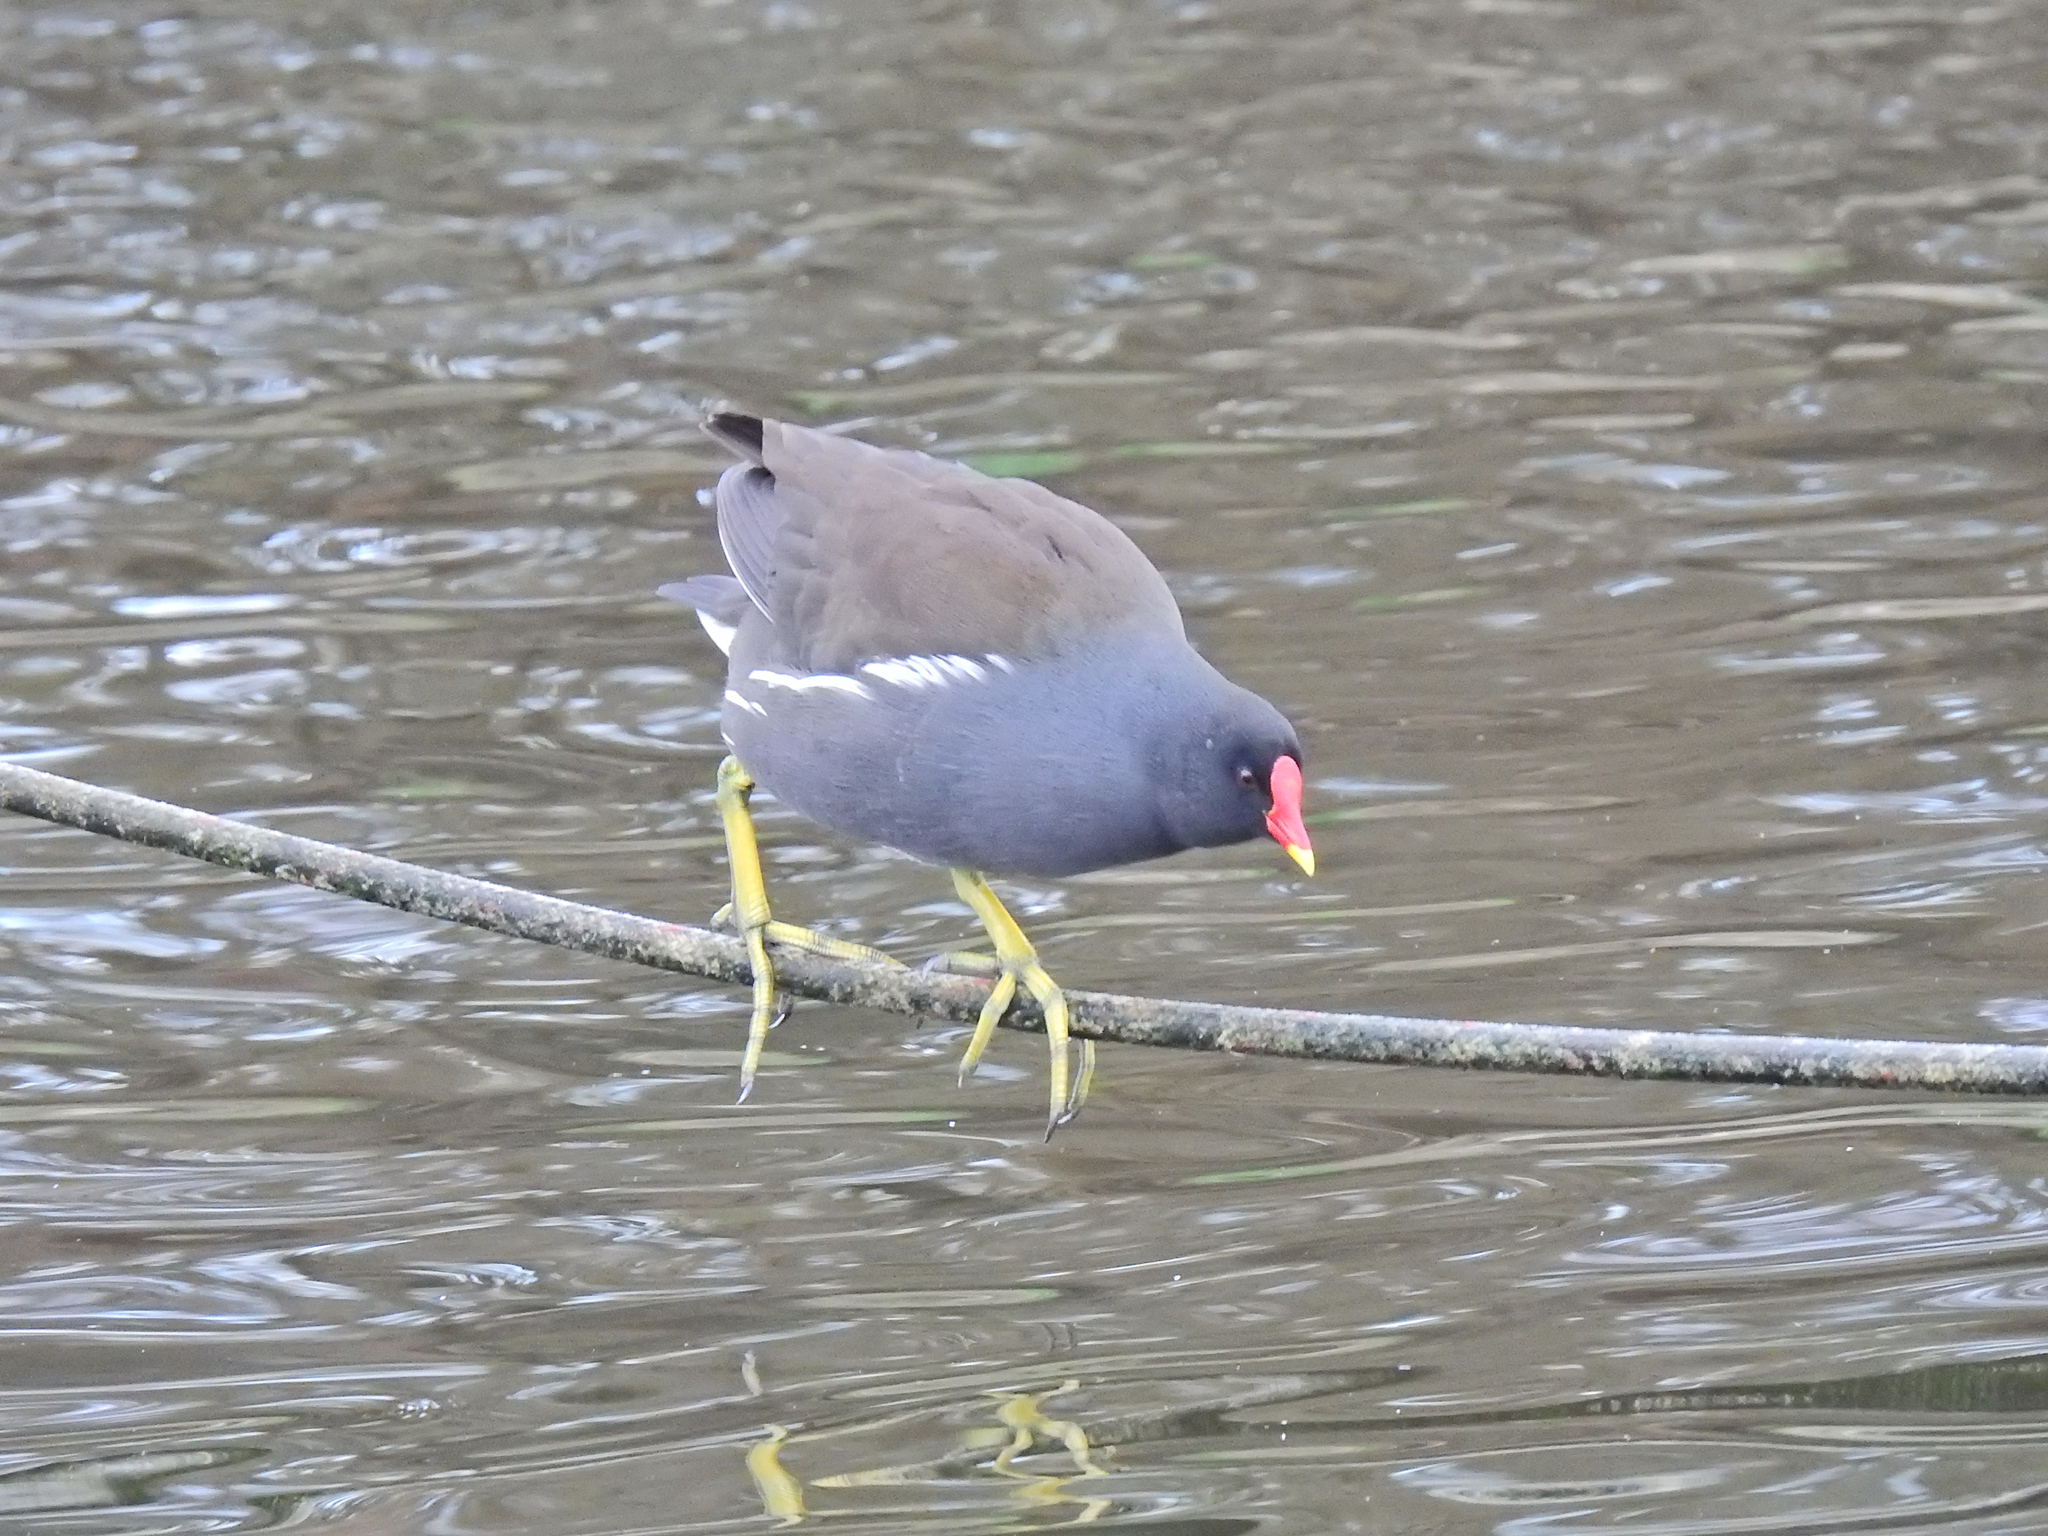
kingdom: Animalia
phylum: Chordata
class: Aves
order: Gruiformes
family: Rallidae
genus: Gallinula
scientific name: Gallinula chloropus
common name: Common moorhen
